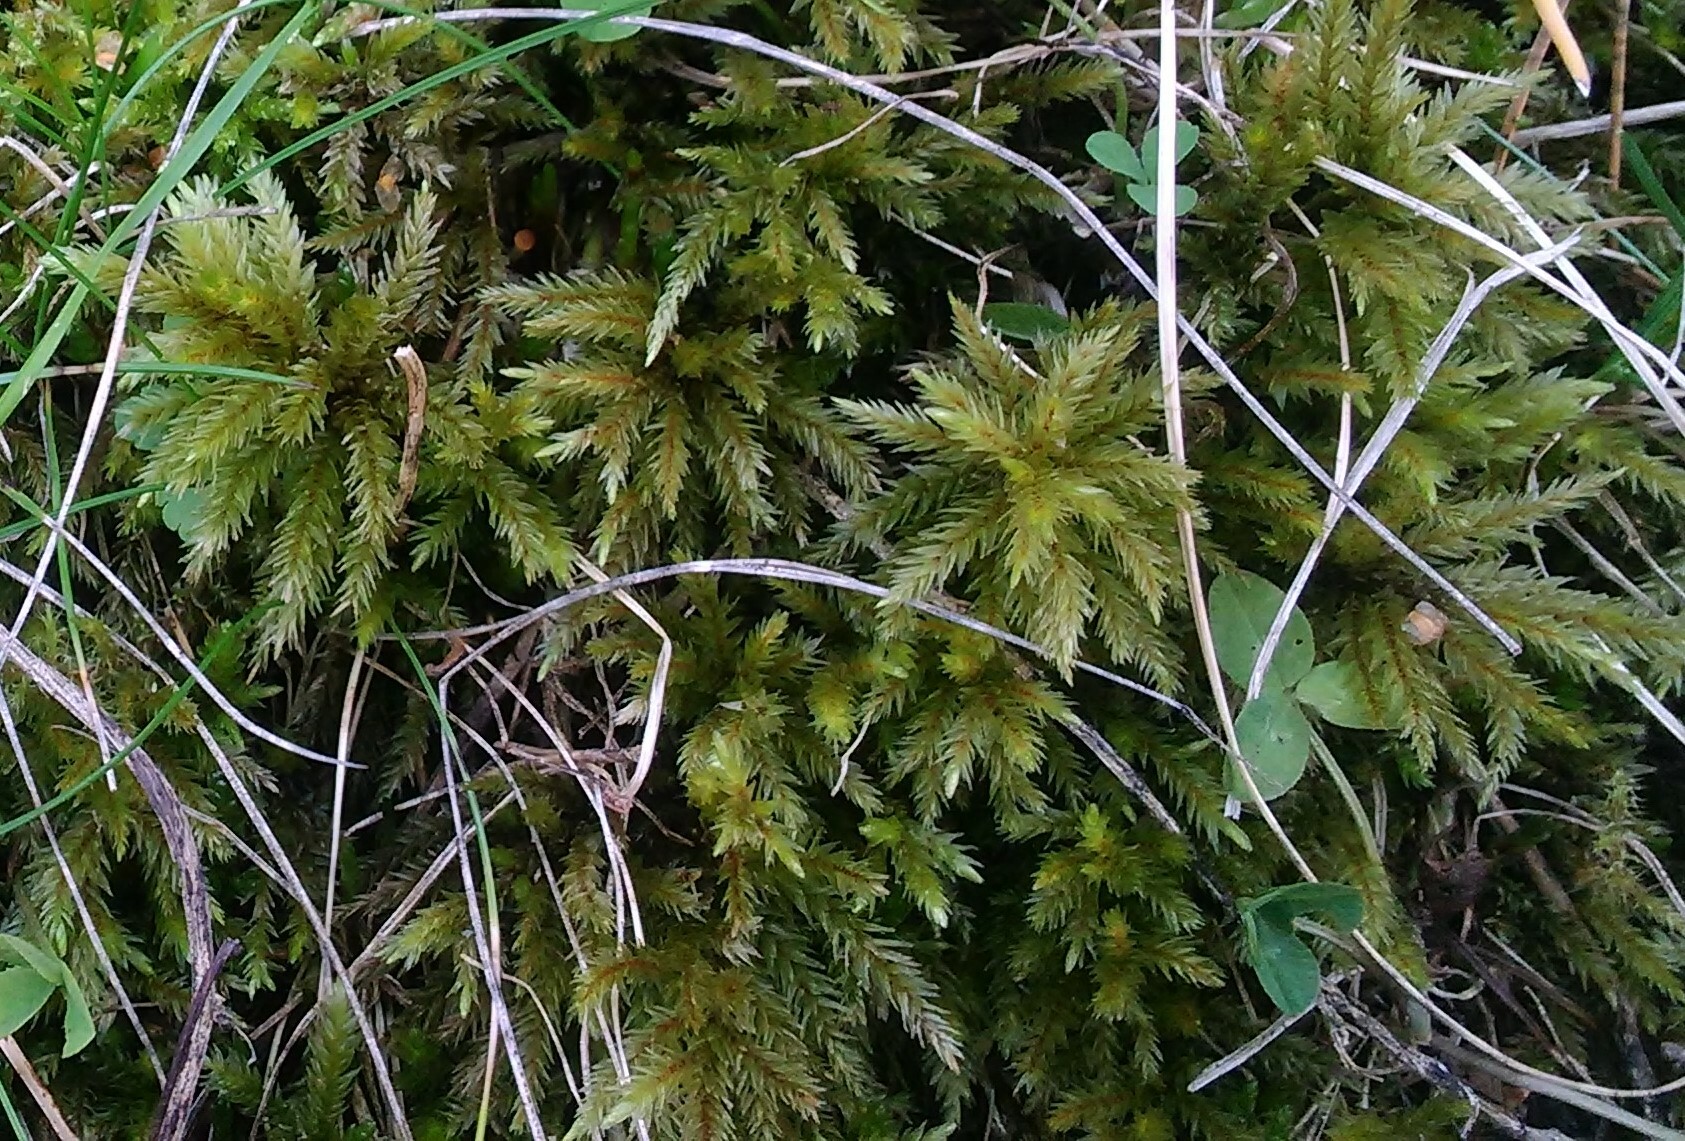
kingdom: Plantae
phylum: Bryophyta
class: Bryopsida
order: Hypnales
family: Climaciaceae
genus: Climacium
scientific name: Climacium dendroides
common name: Northern tree moss
